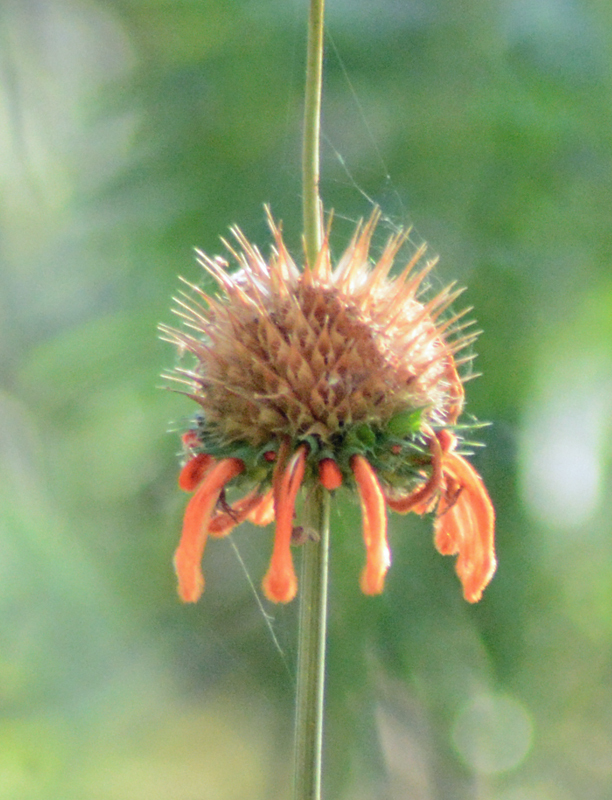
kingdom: Plantae
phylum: Tracheophyta
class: Magnoliopsida
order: Lamiales
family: Lamiaceae
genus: Leonotis
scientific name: Leonotis nepetifolia
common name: Christmas candlestick
